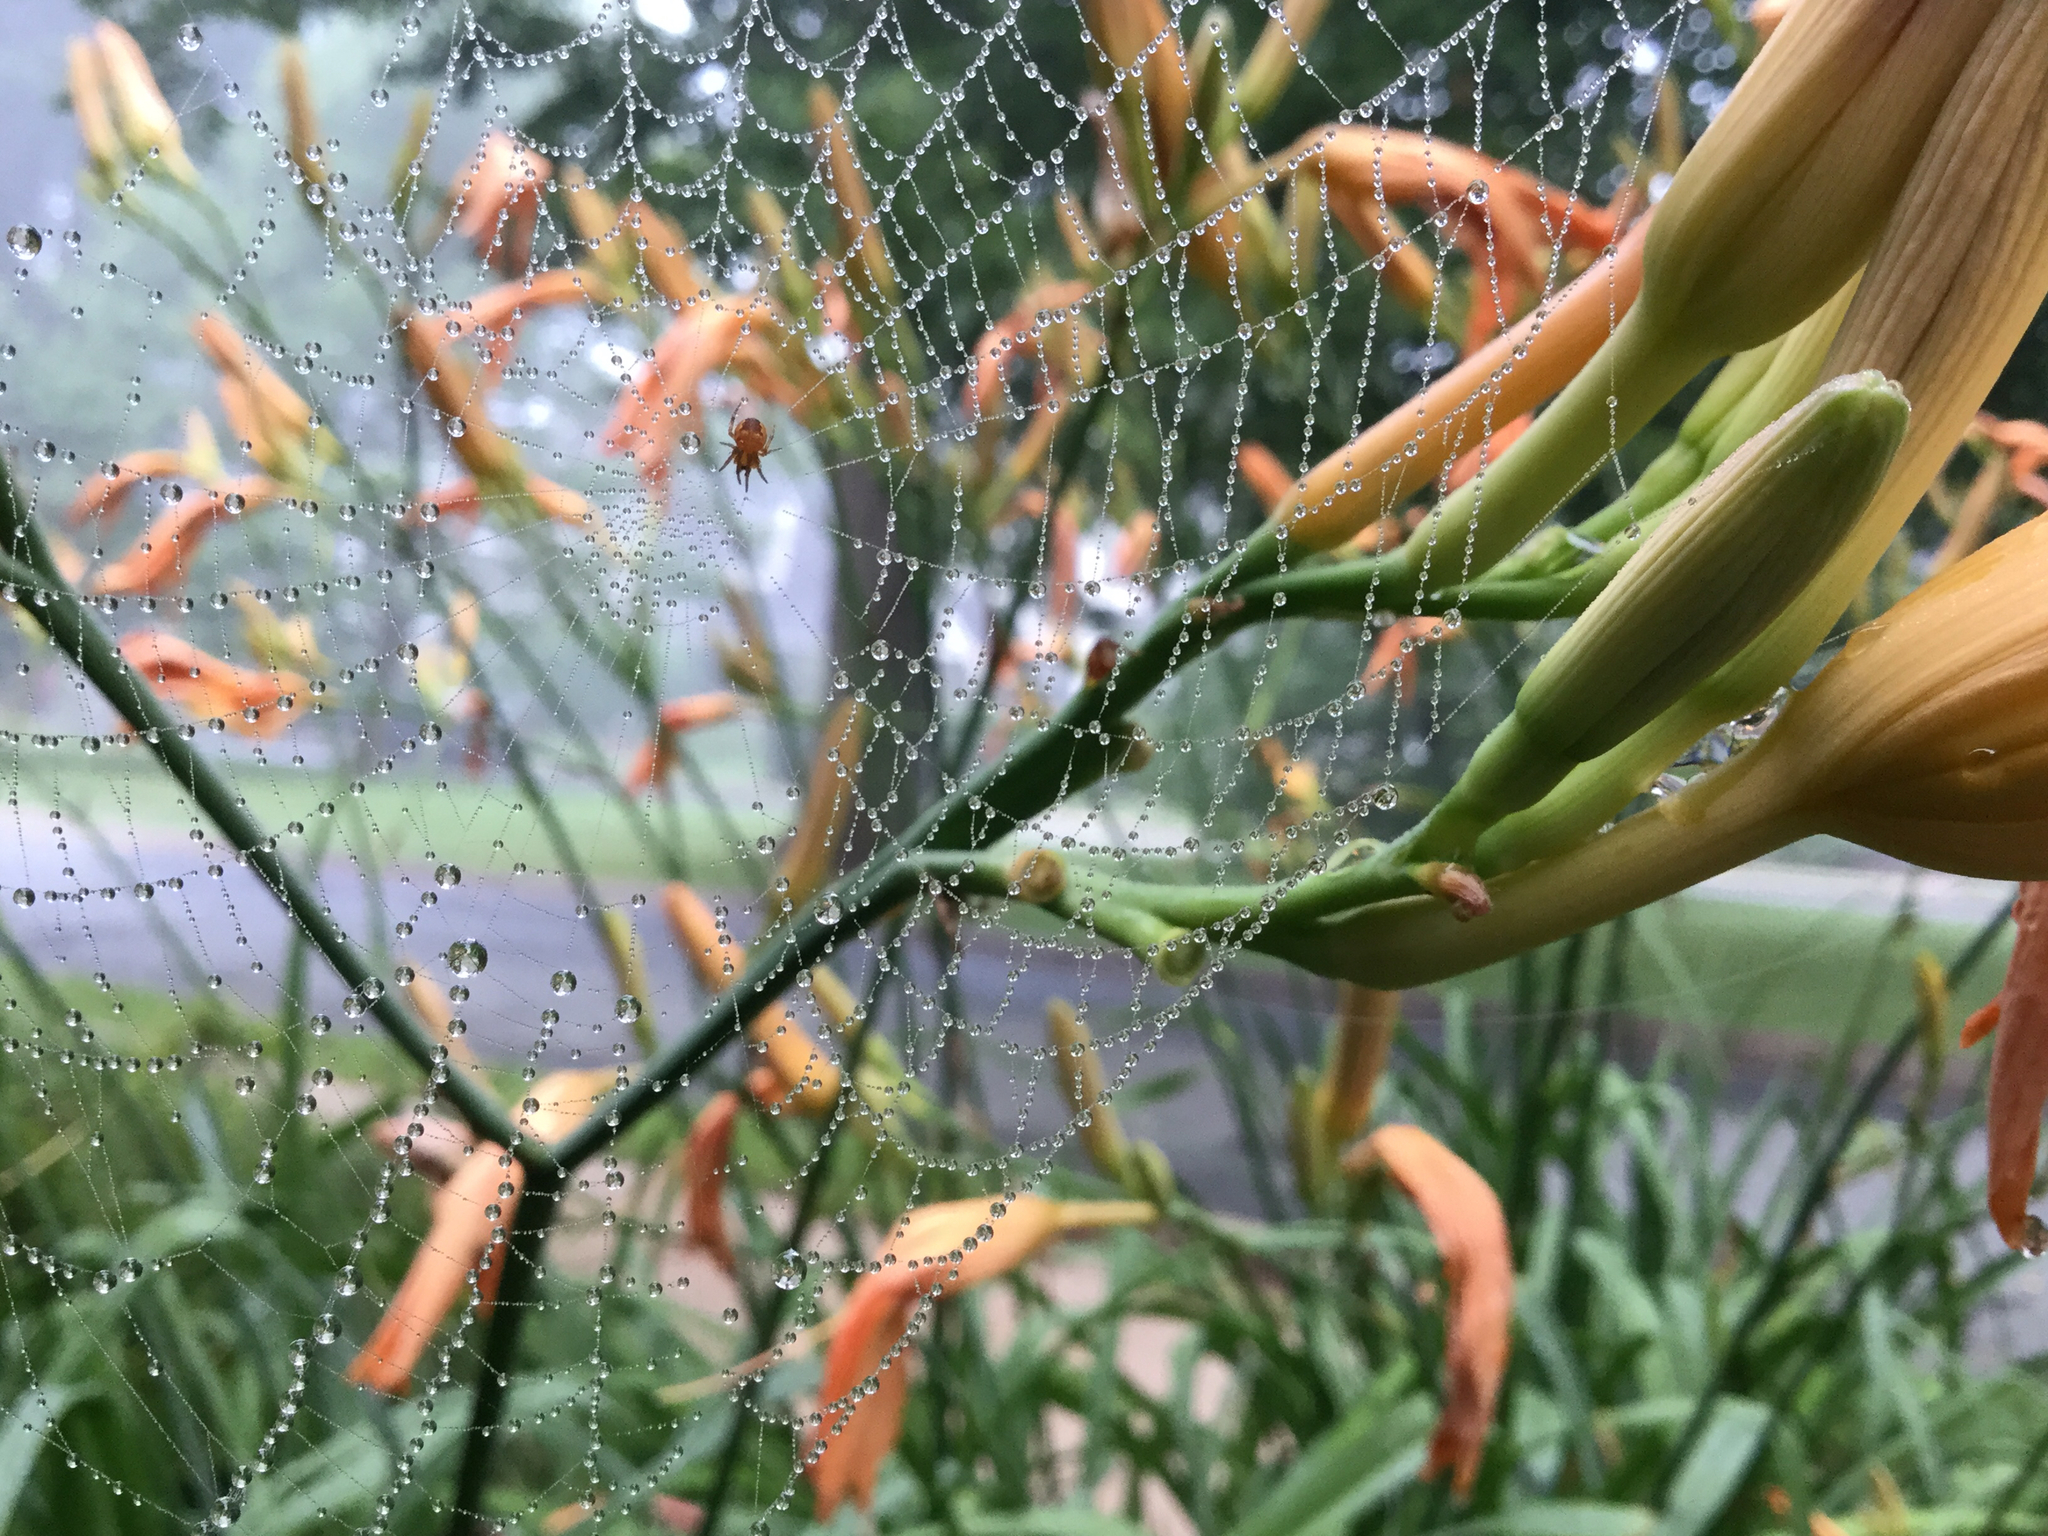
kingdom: Animalia
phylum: Arthropoda
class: Arachnida
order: Araneae
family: Araneidae
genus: Araneus
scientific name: Araneus diadematus
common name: Cross orbweaver
